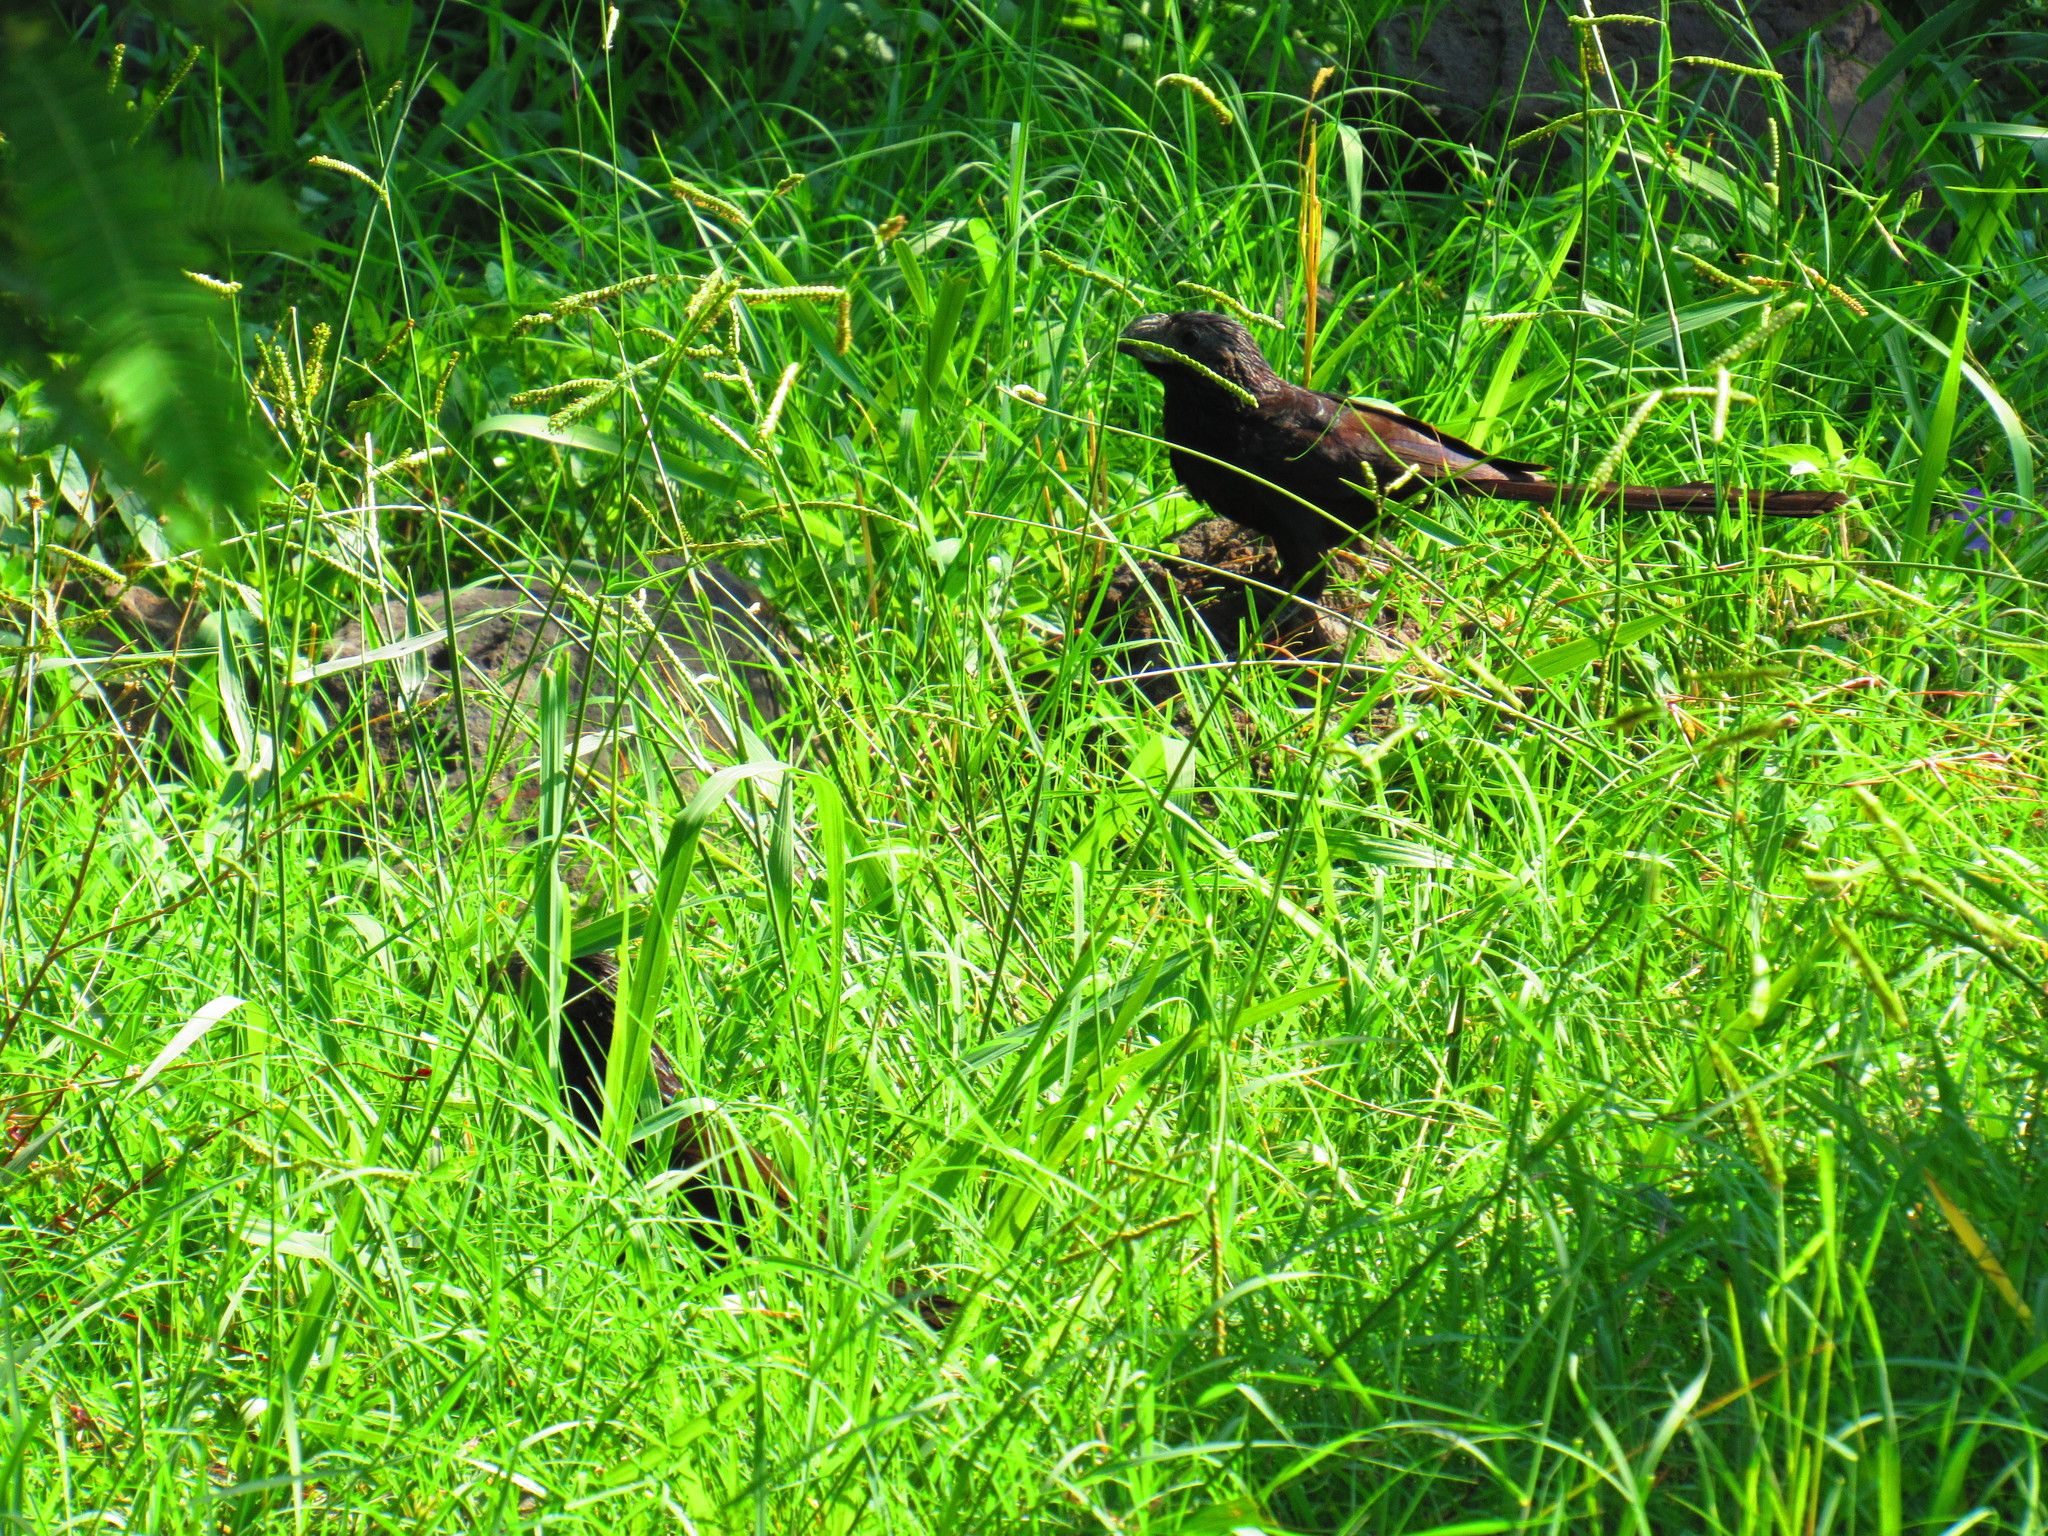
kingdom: Animalia
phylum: Chordata
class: Aves
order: Cuculiformes
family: Cuculidae
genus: Crotophaga
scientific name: Crotophaga sulcirostris
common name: Groove-billed ani
